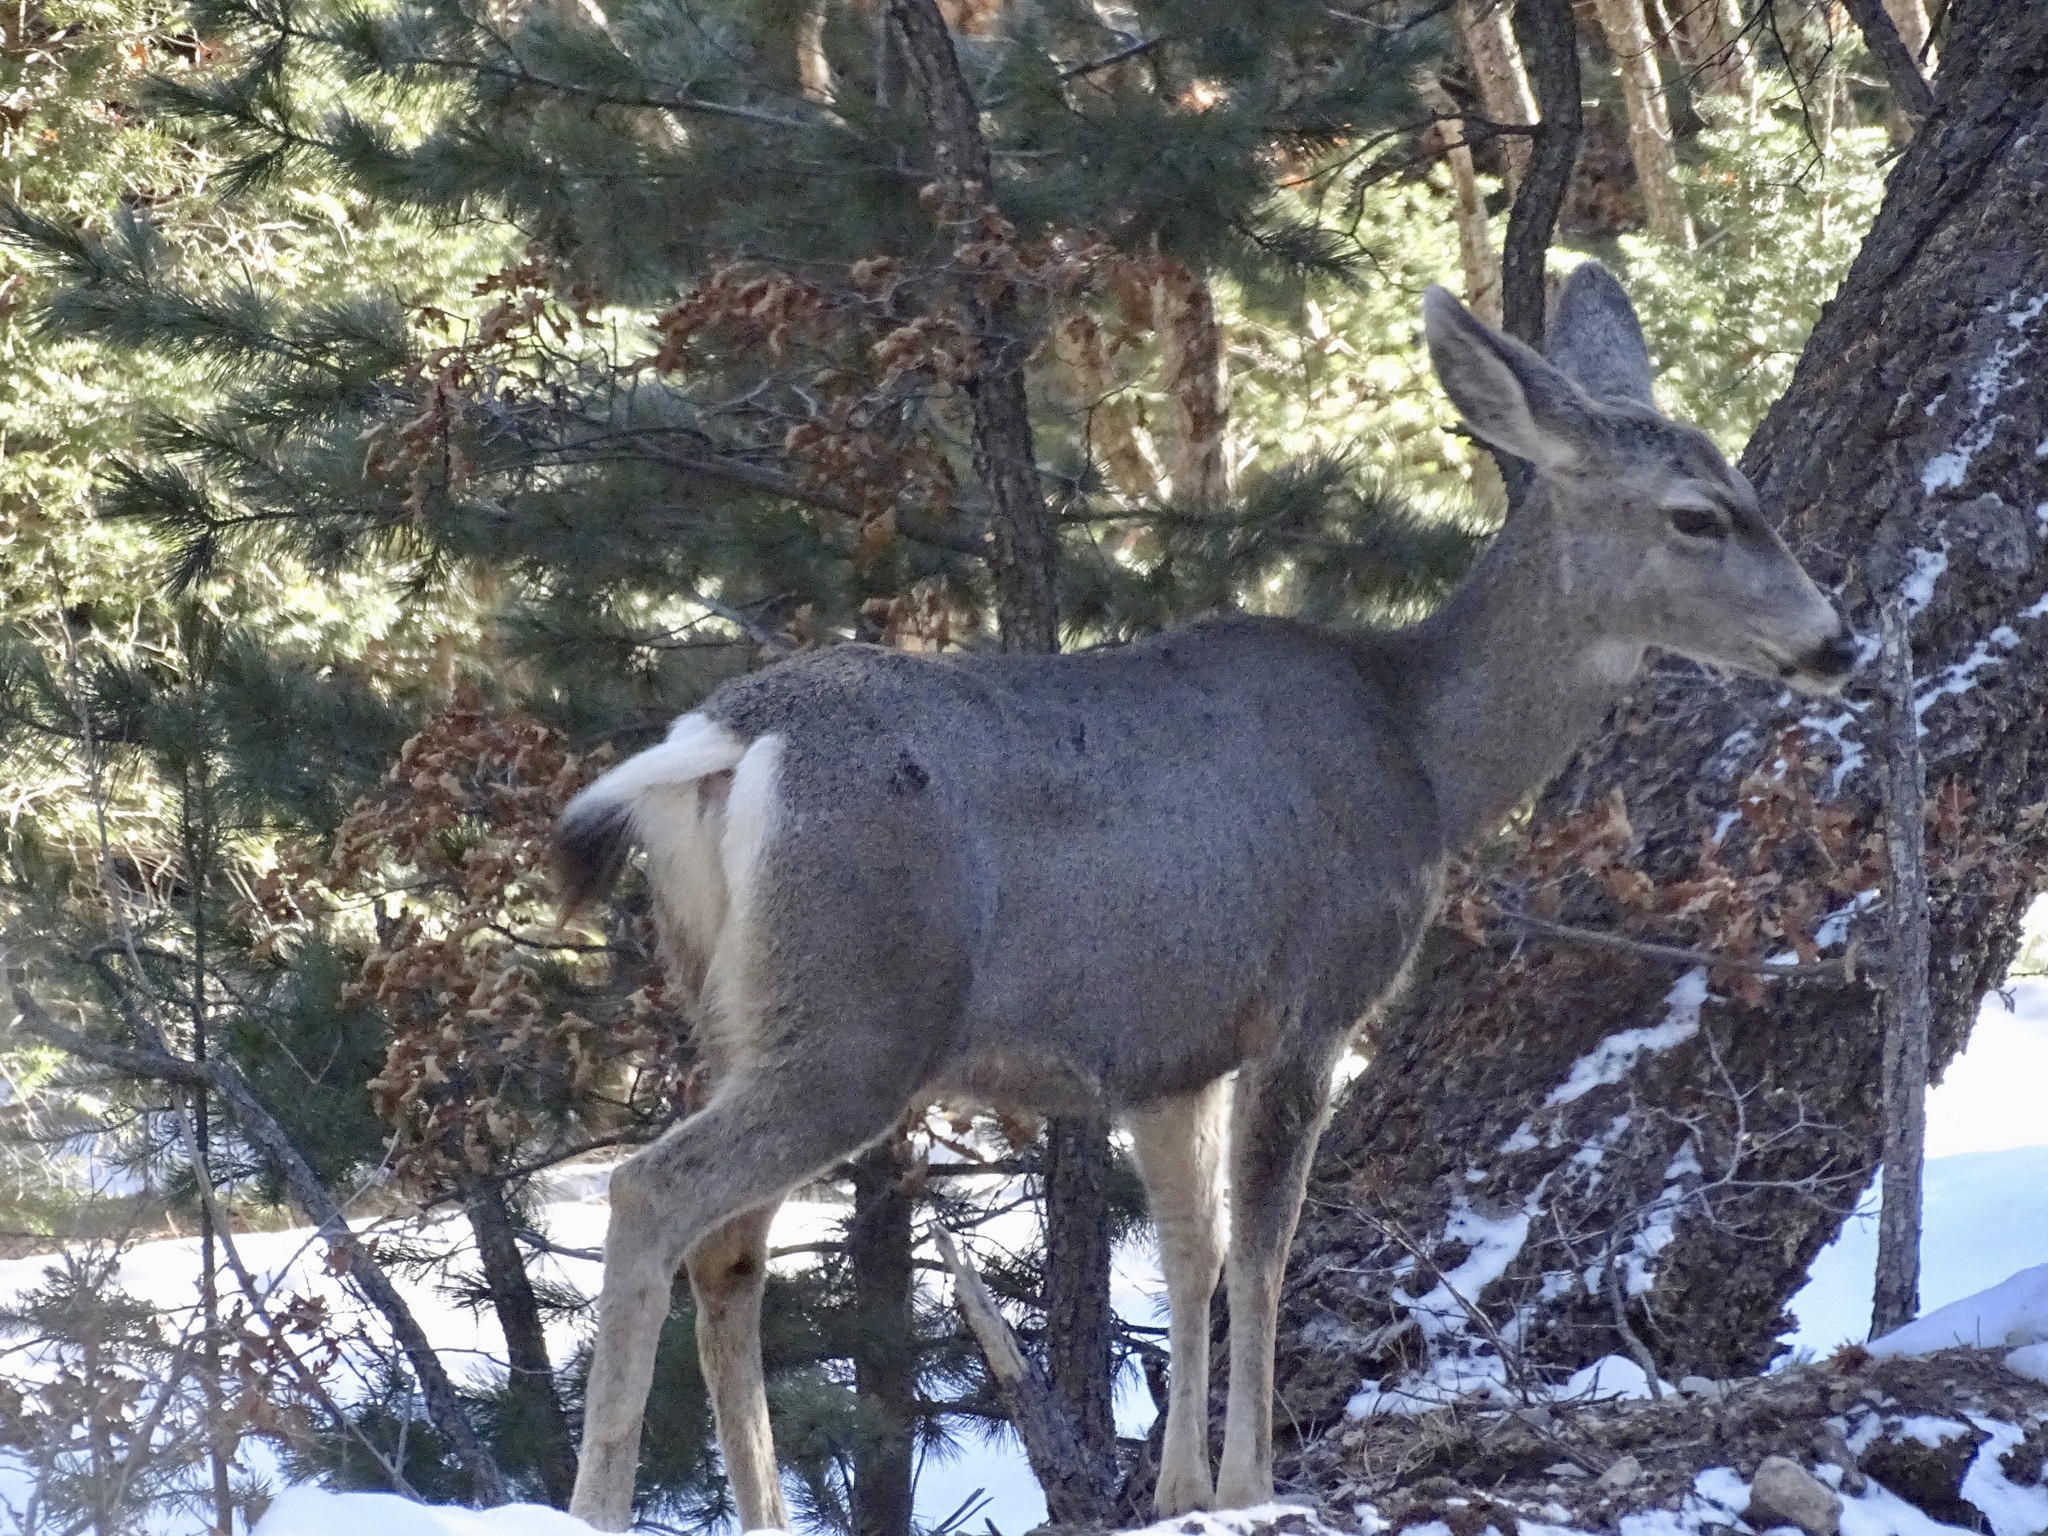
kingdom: Animalia
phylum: Chordata
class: Mammalia
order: Artiodactyla
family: Cervidae
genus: Odocoileus
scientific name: Odocoileus hemionus
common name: Mule deer
